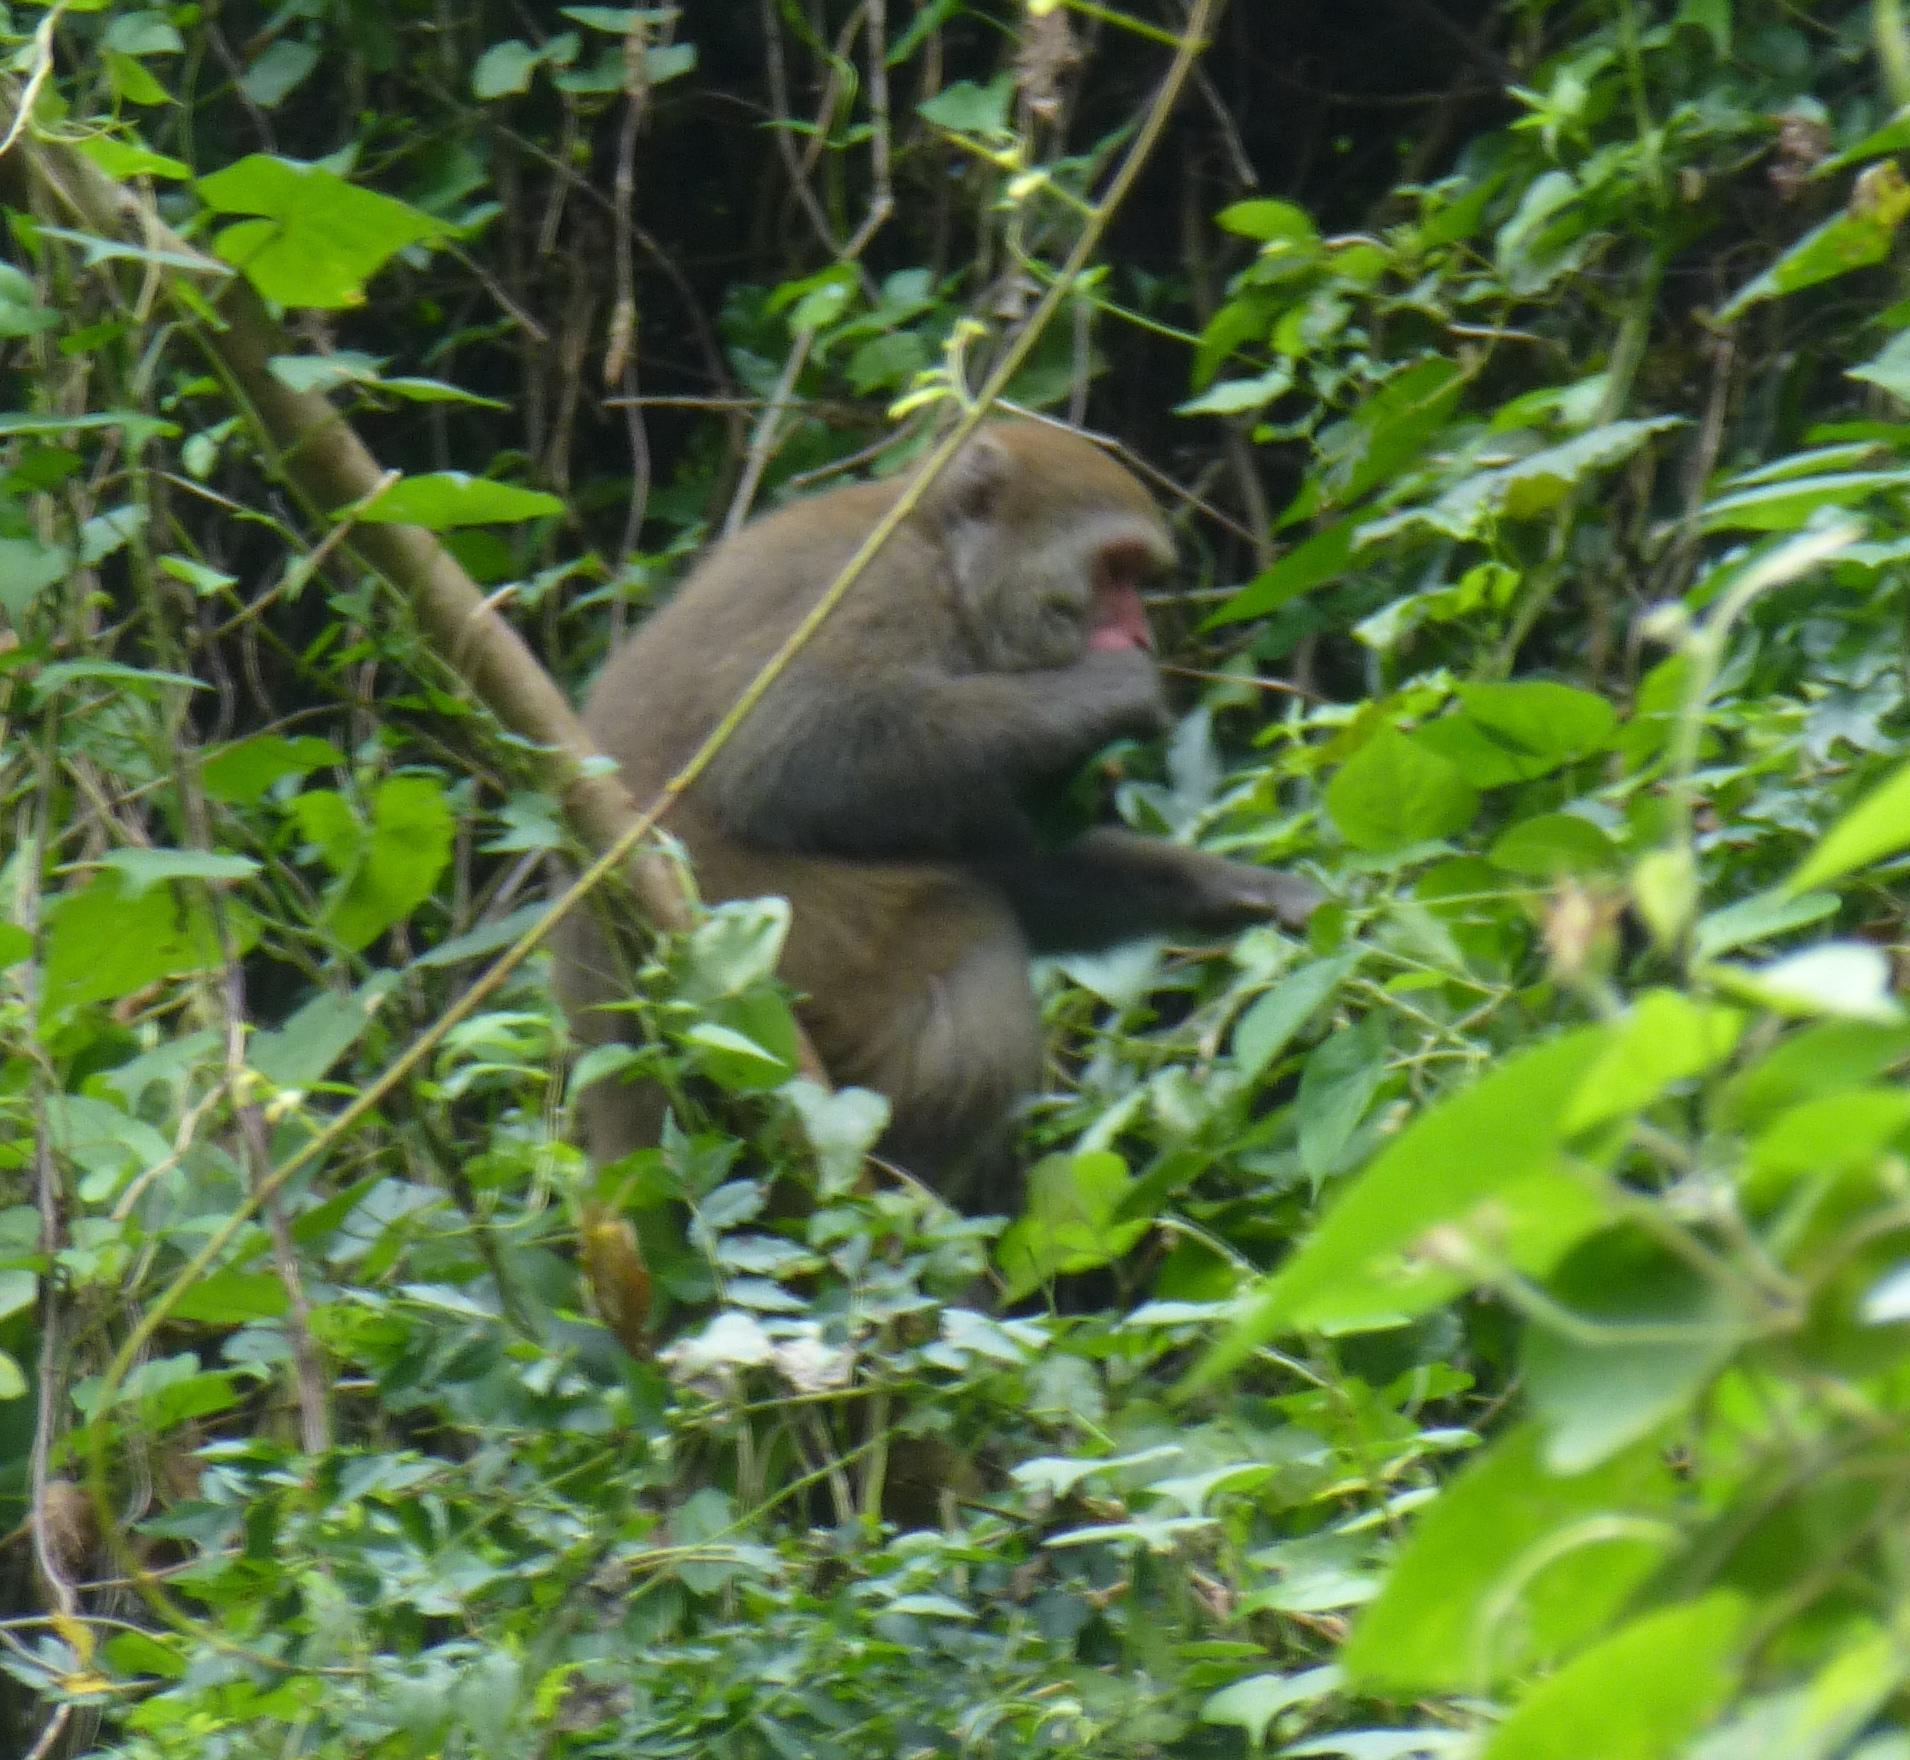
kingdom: Animalia
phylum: Chordata
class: Mammalia
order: Primates
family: Cercopithecidae
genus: Macaca
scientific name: Macaca cyclopis
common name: Formosan rock macaque
